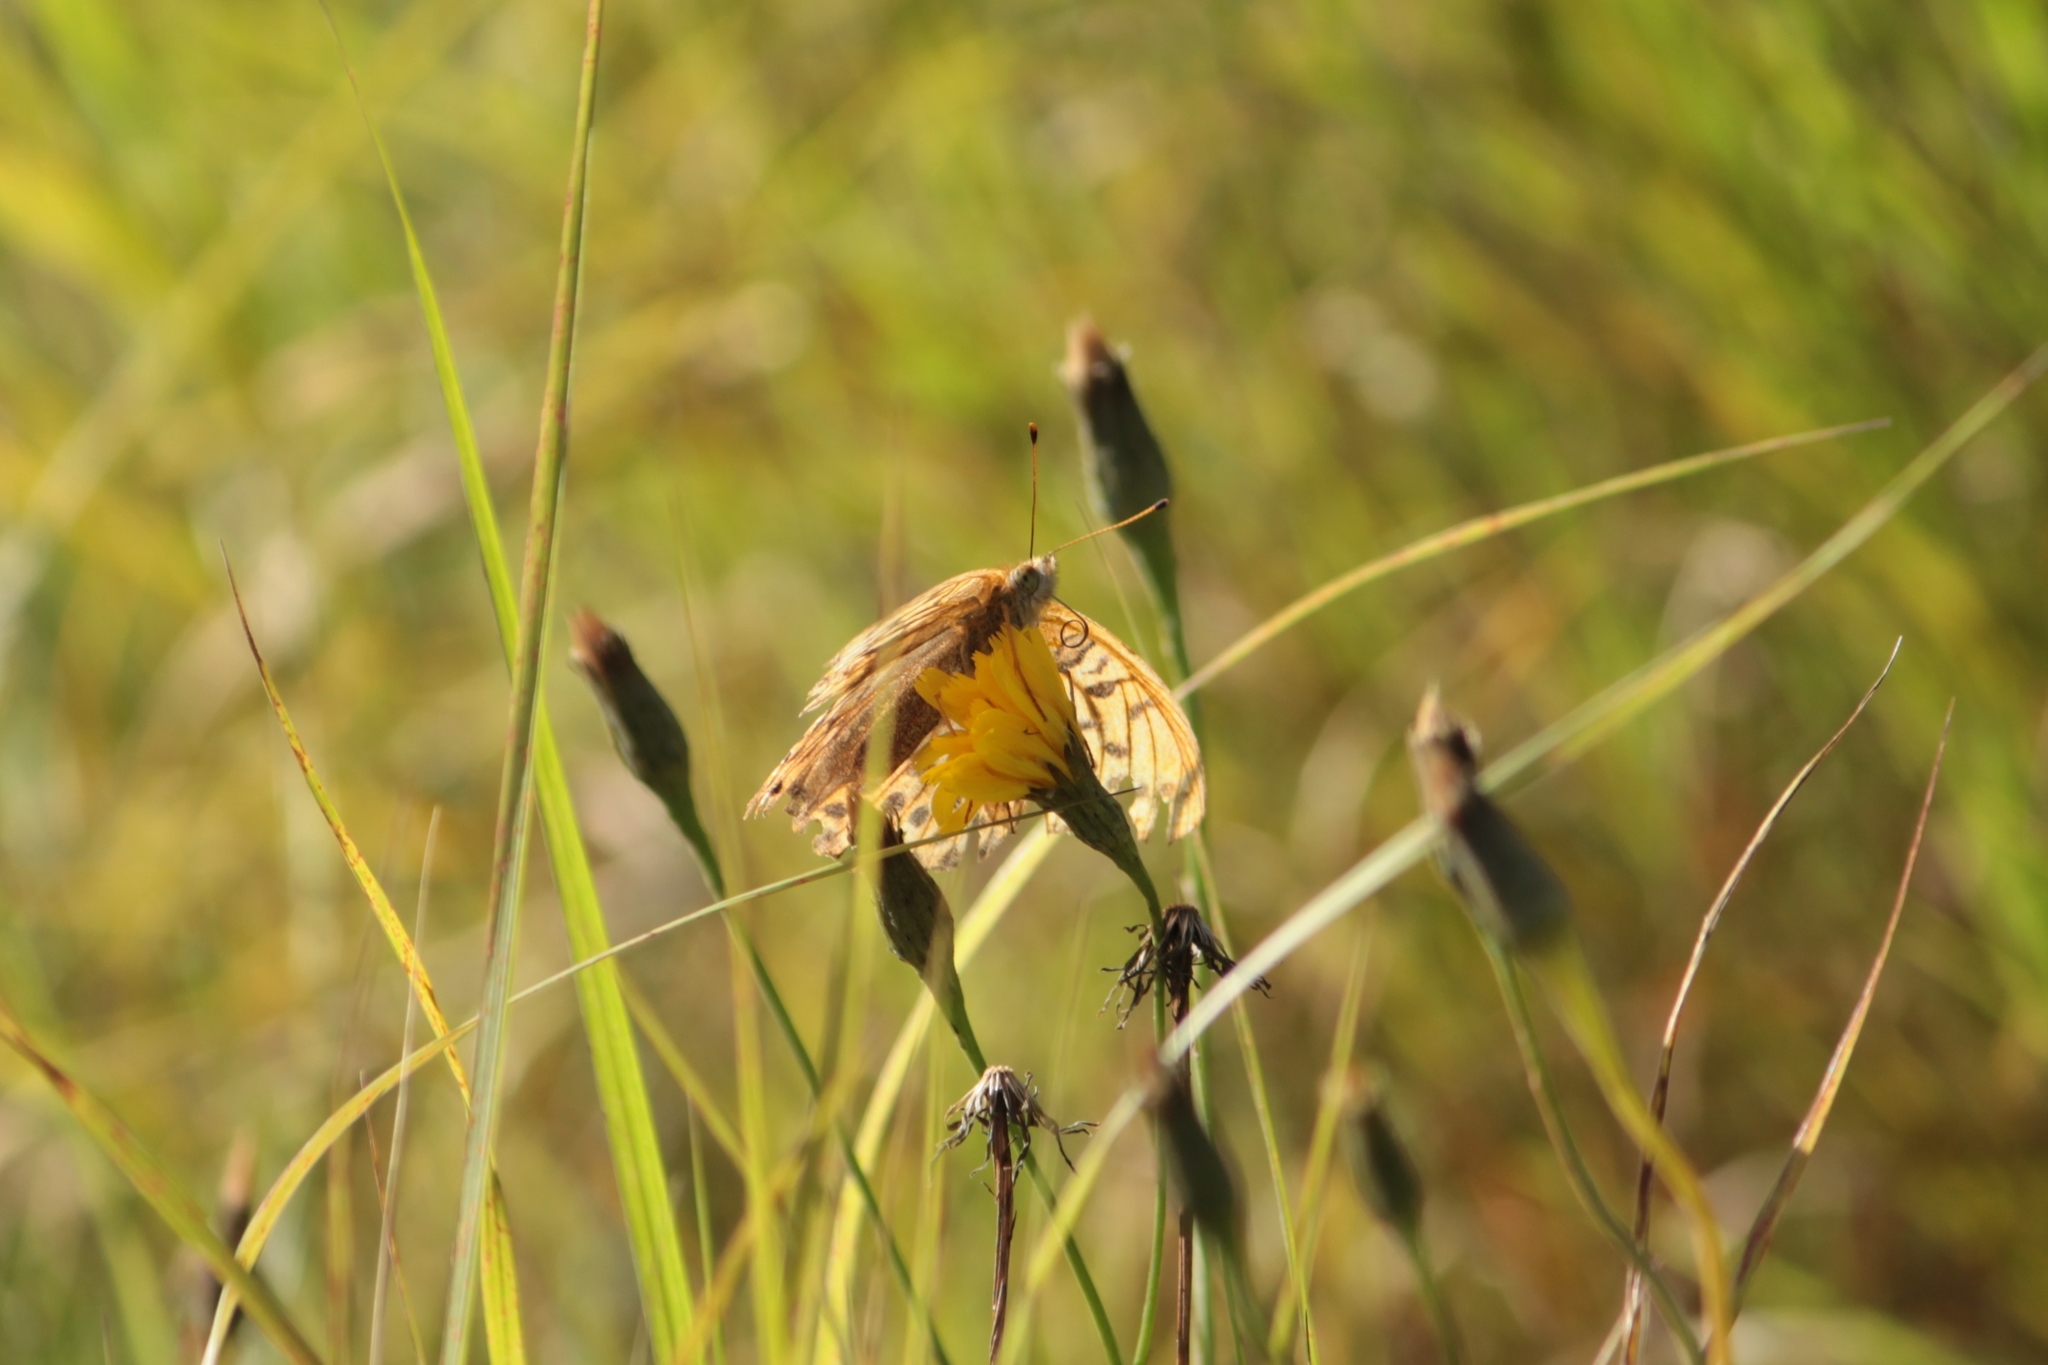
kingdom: Animalia
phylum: Arthropoda
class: Insecta
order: Lepidoptera
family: Nymphalidae
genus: Argynnis
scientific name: Argynnis paphia
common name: Silver-washed fritillary
